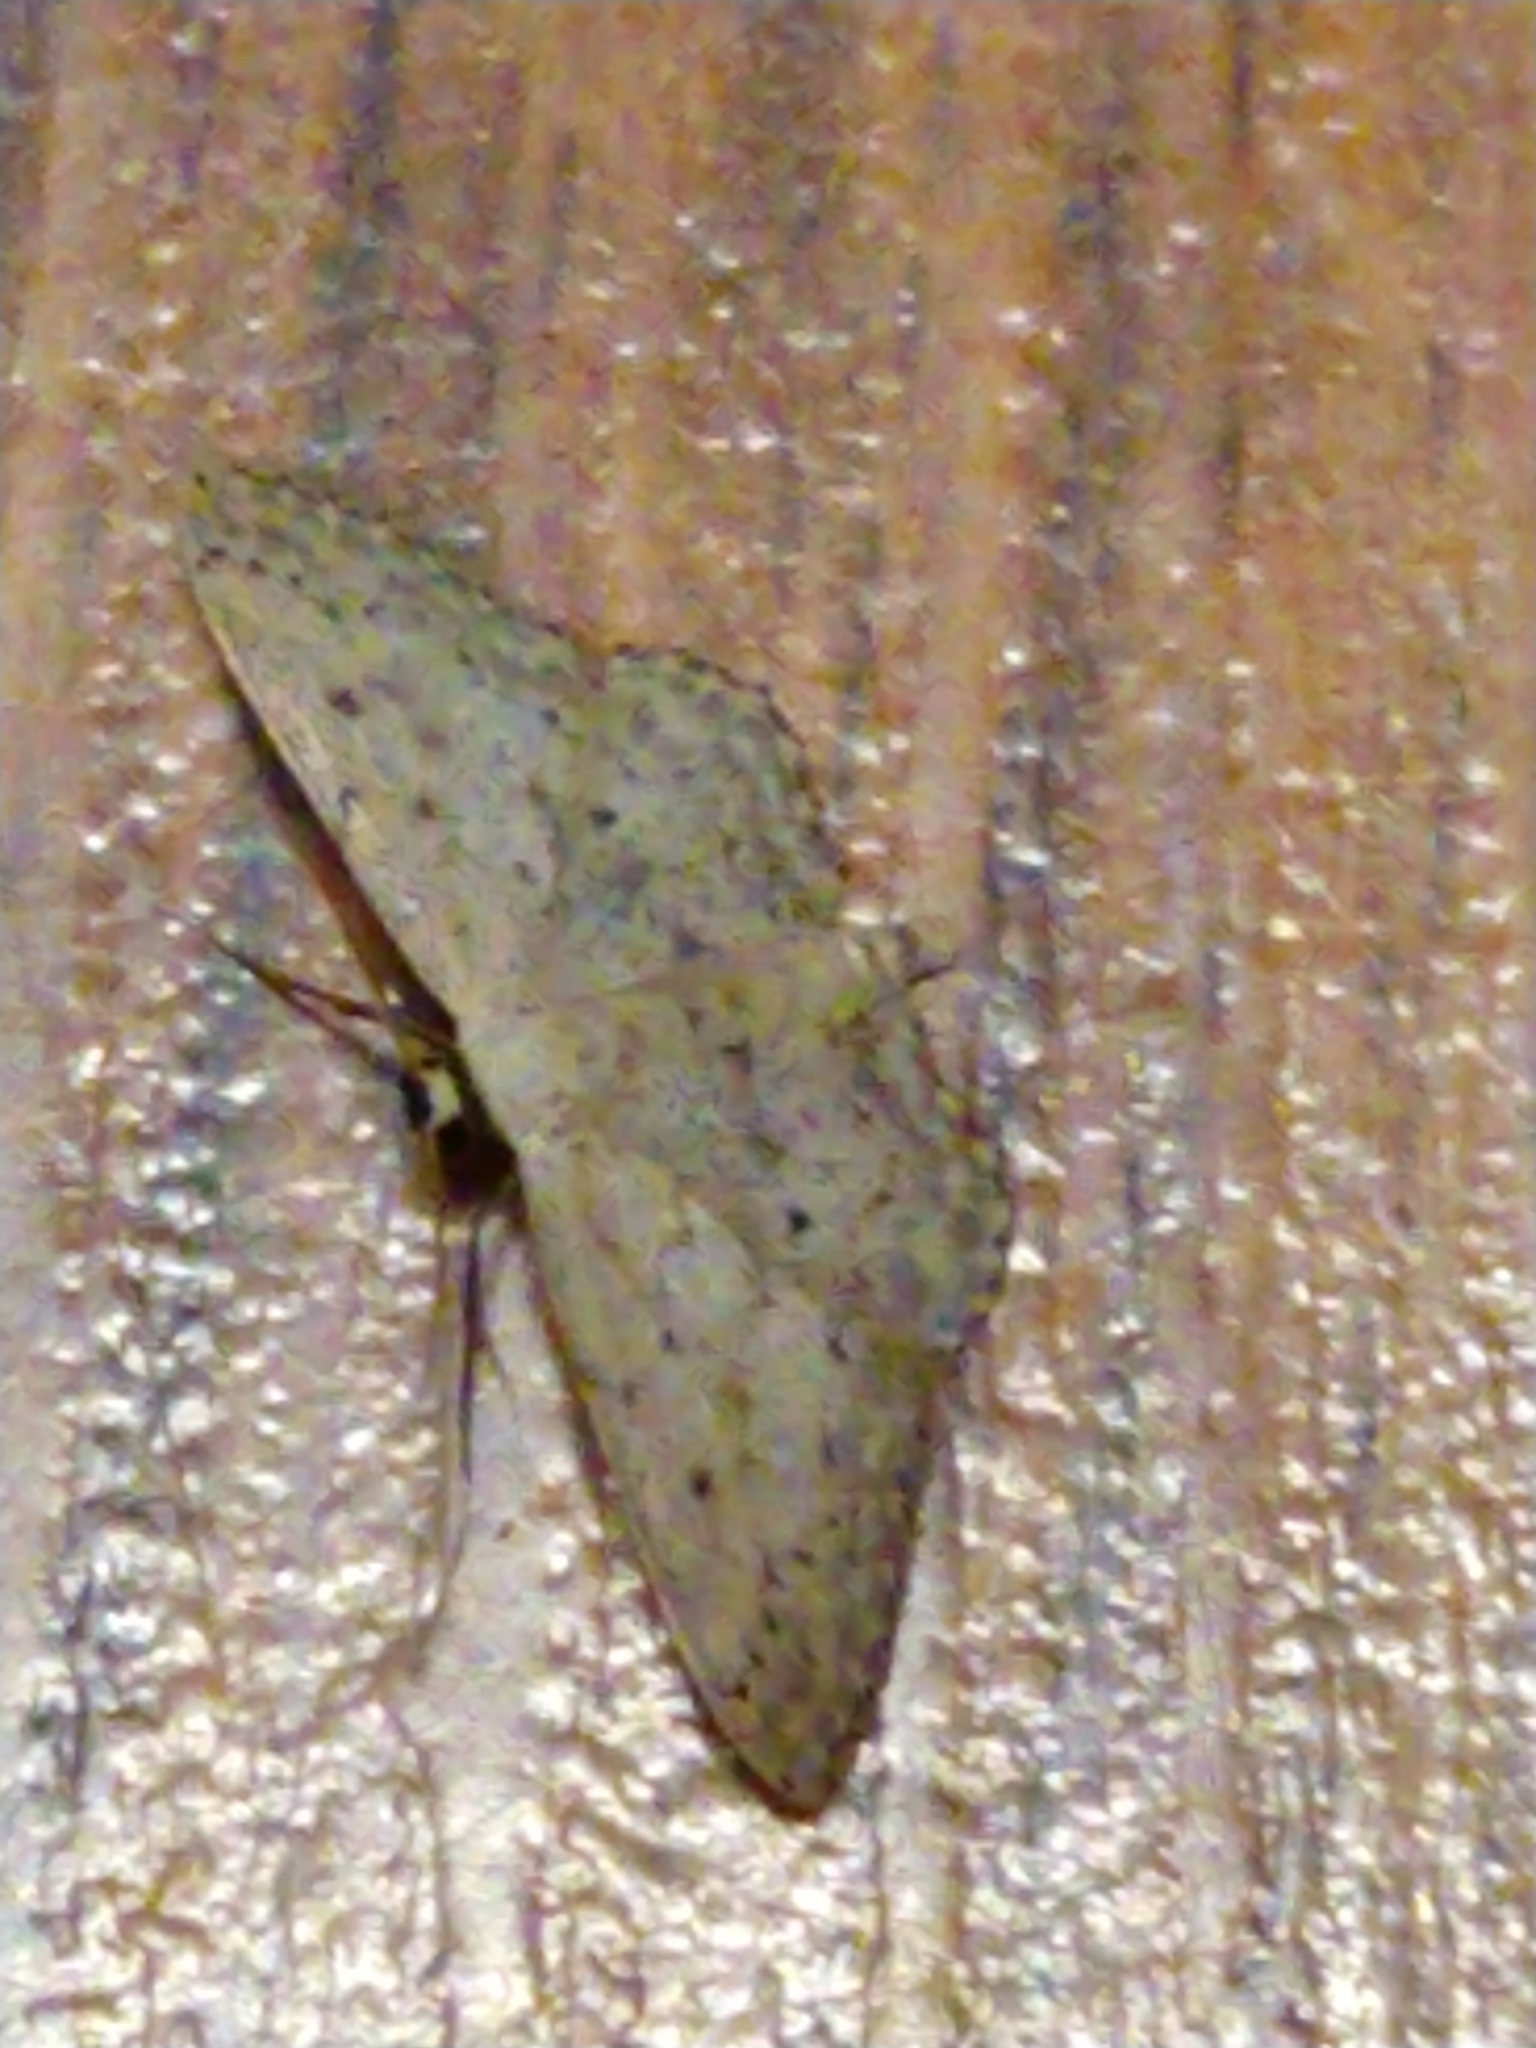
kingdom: Animalia
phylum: Arthropoda
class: Insecta
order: Lepidoptera
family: Geometridae
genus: Idaea
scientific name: Idaea seriata
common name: Small dusty wave
